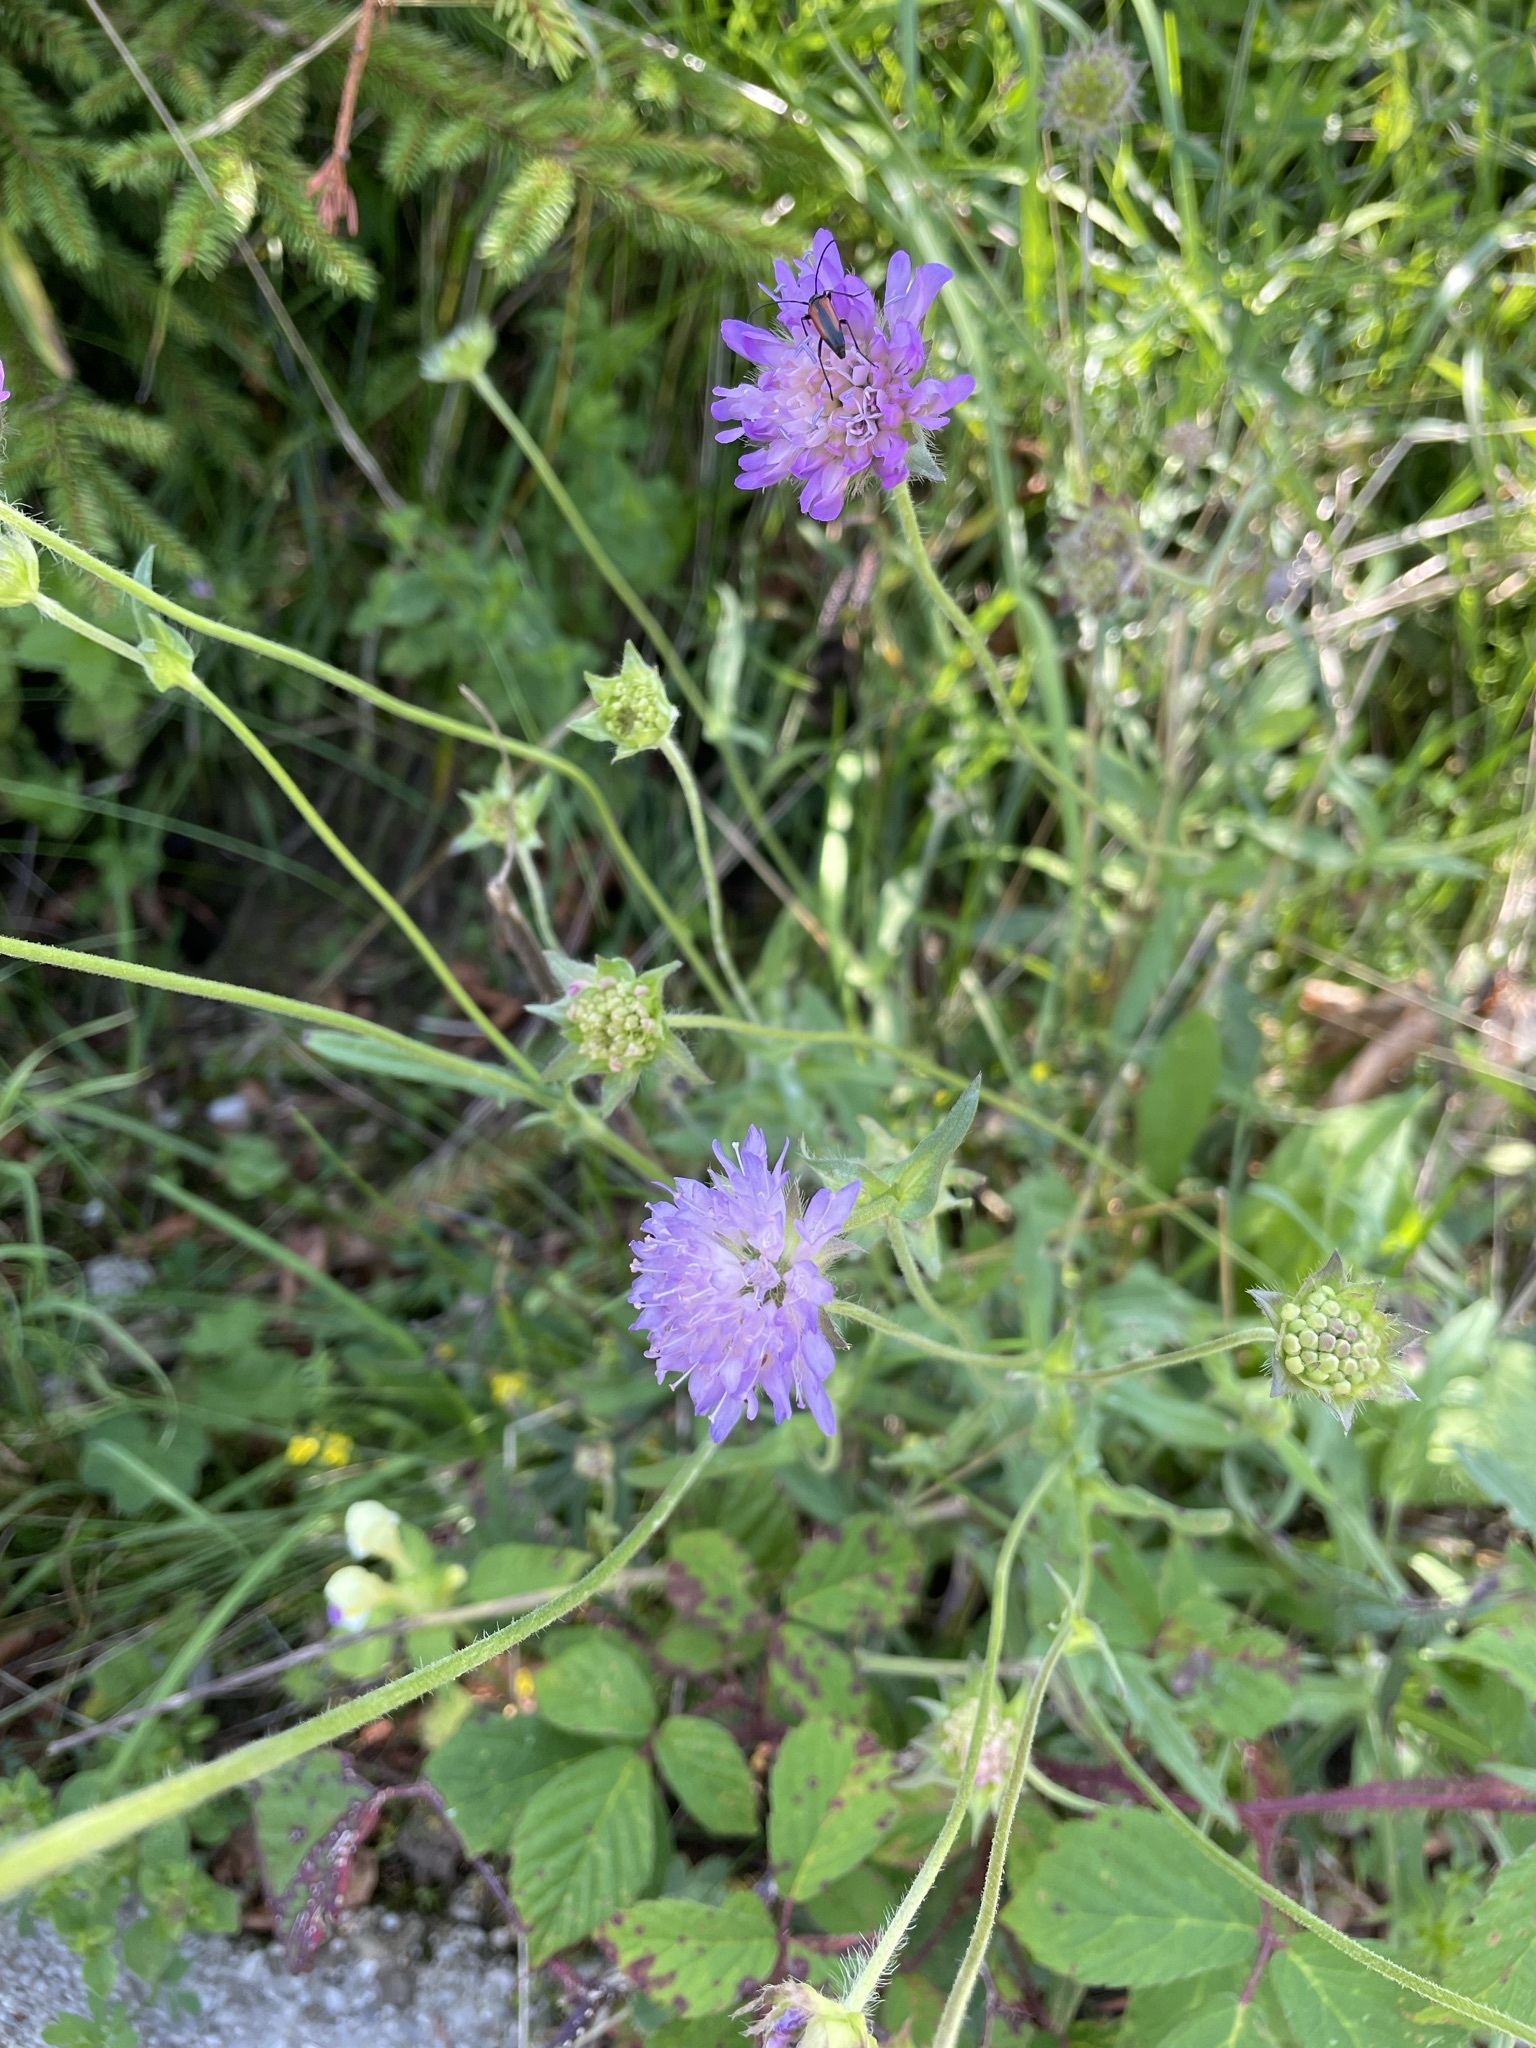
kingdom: Plantae
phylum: Tracheophyta
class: Magnoliopsida
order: Dipsacales
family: Caprifoliaceae
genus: Knautia
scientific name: Knautia arvensis
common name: Field scabiosa
